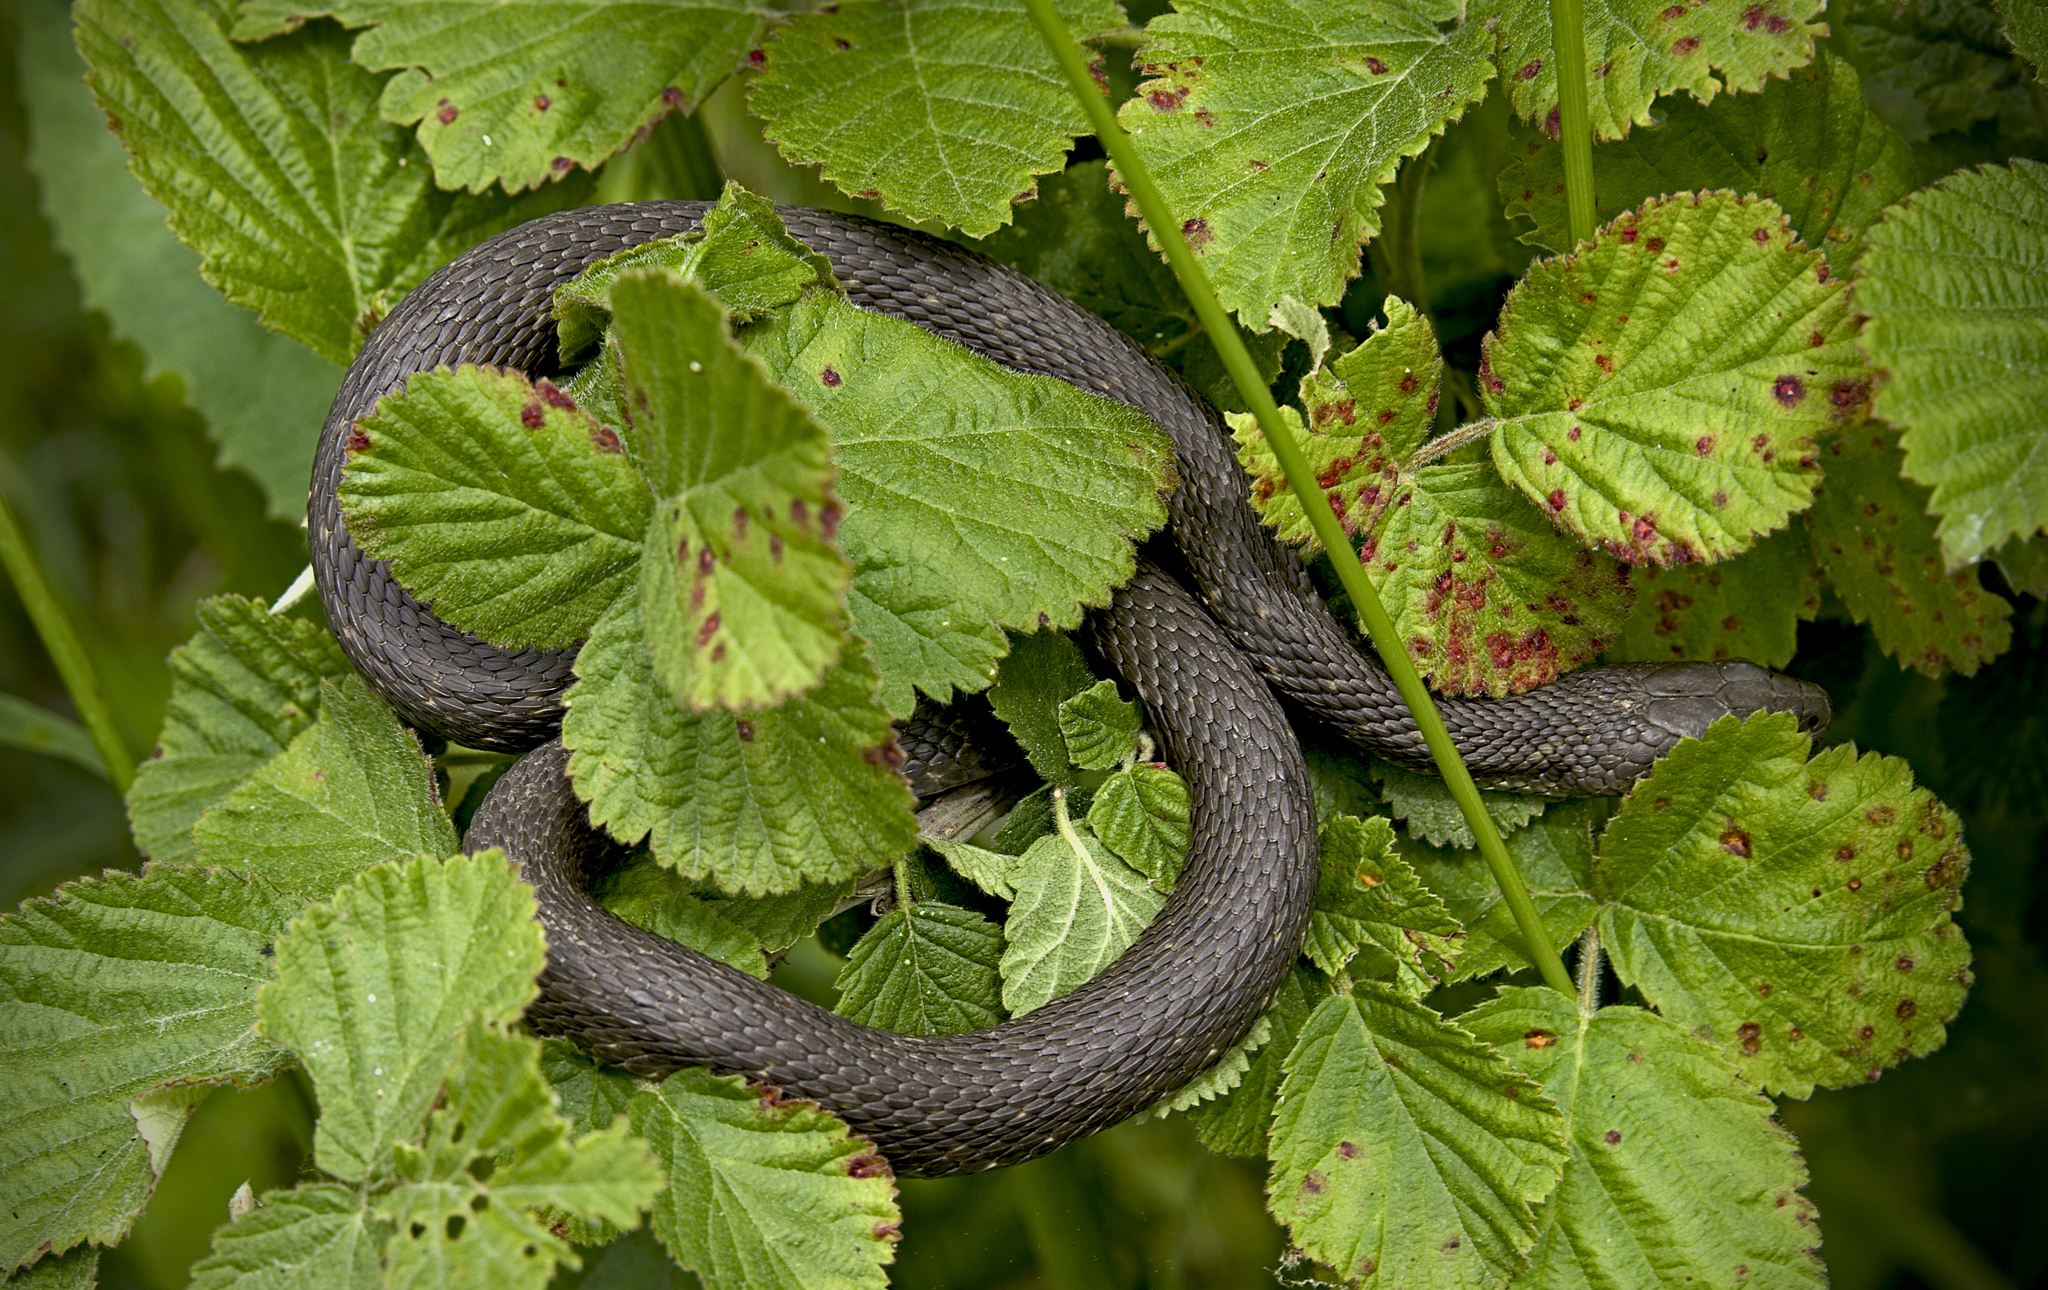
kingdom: Animalia
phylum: Chordata
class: Squamata
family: Colubridae
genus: Natrix
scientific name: Natrix tessellata
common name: Dice snake
